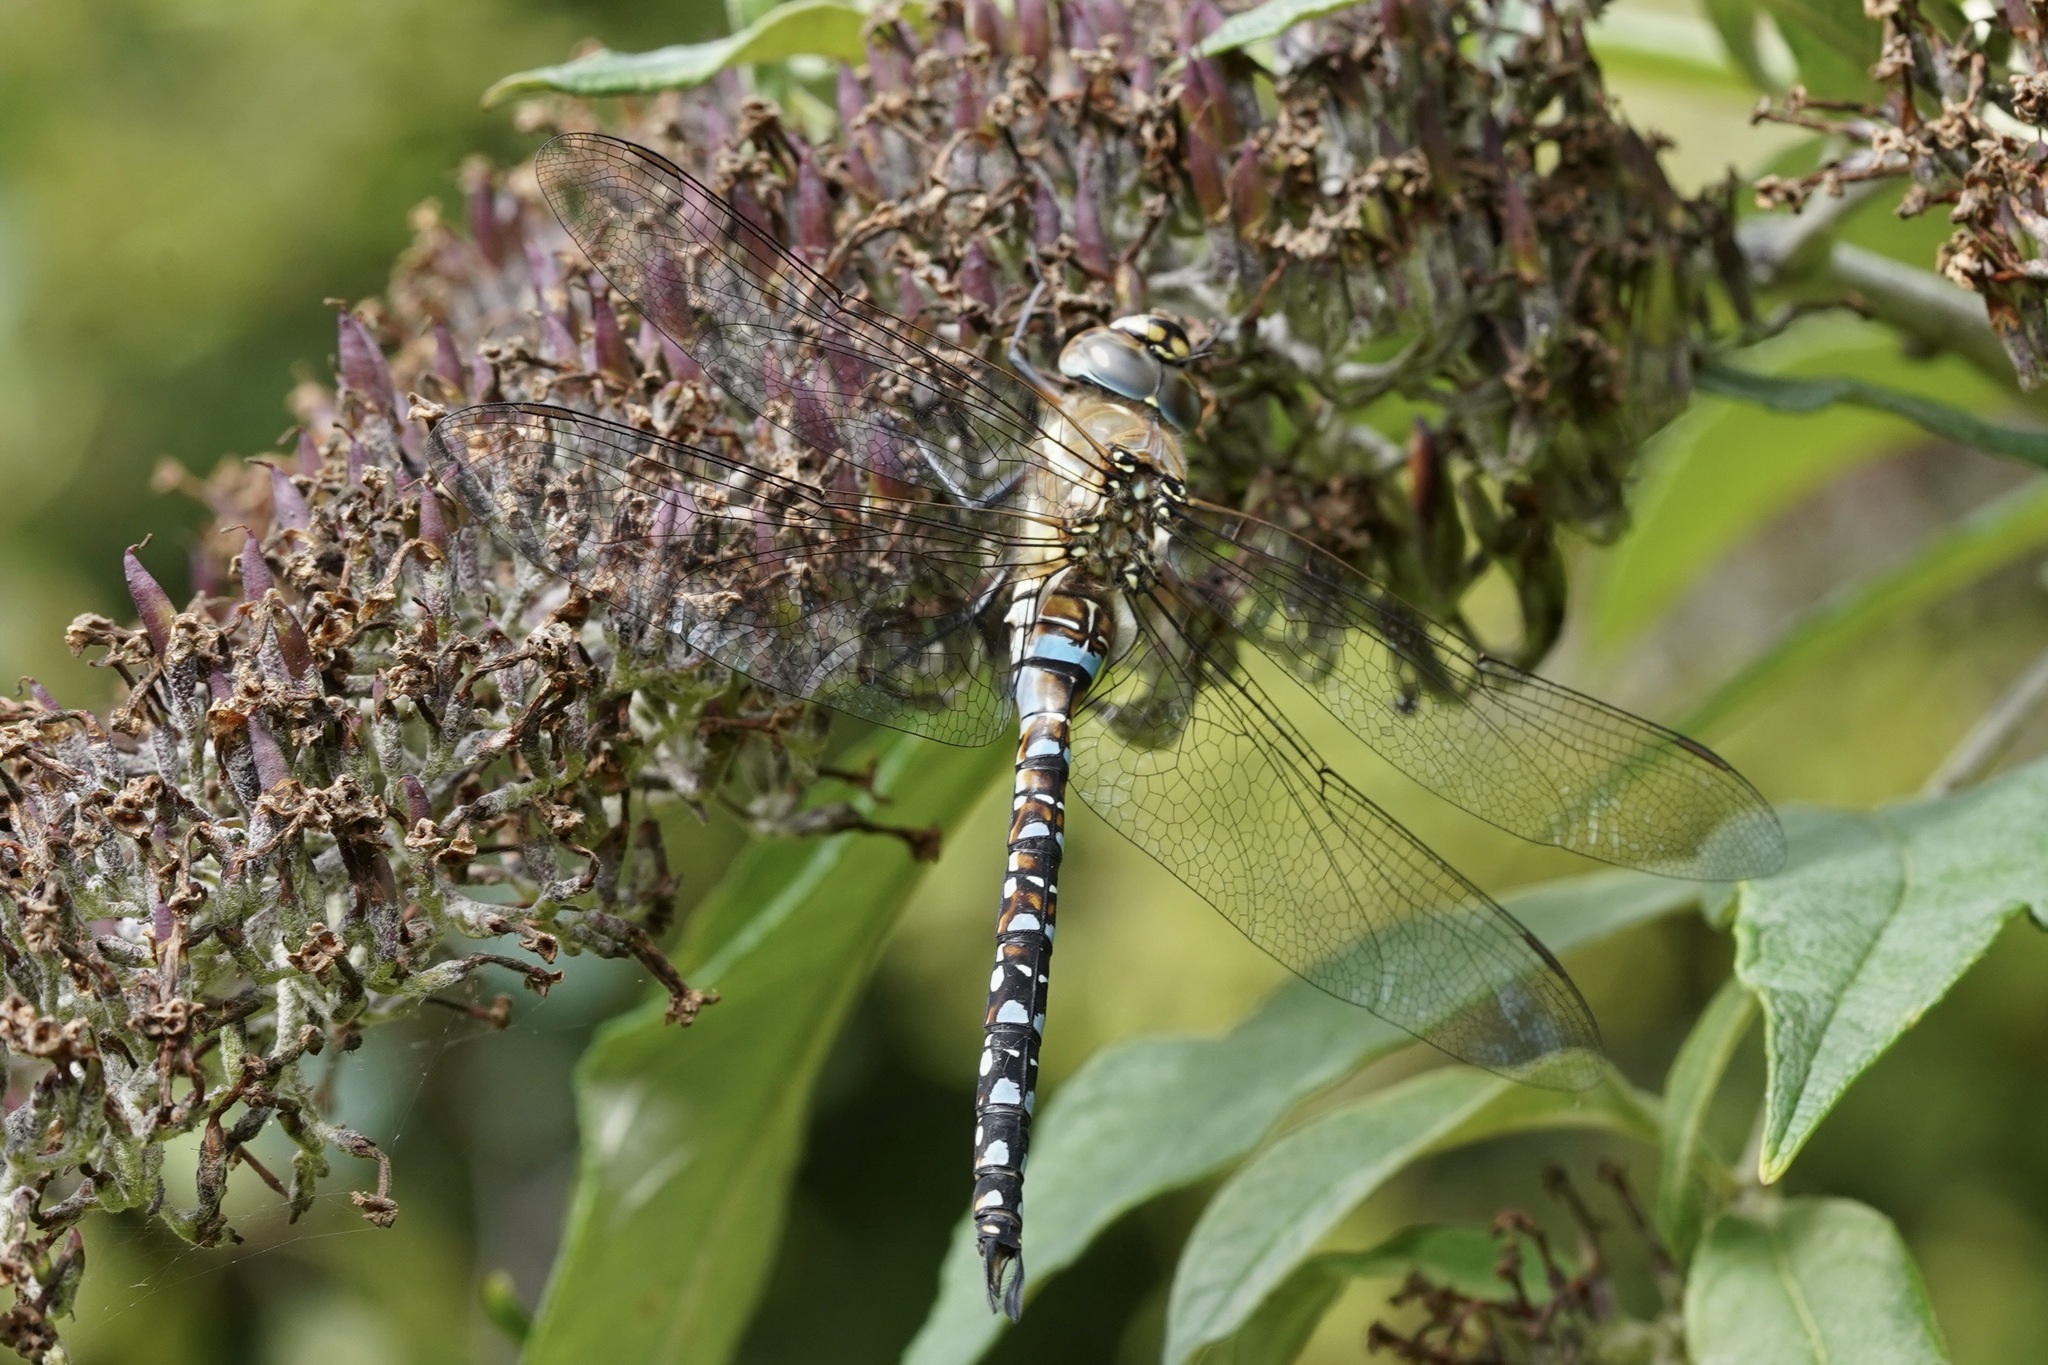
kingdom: Animalia
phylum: Arthropoda
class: Insecta
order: Odonata
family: Aeshnidae
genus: Aeshna
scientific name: Aeshna mixta
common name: Migrant hawker
